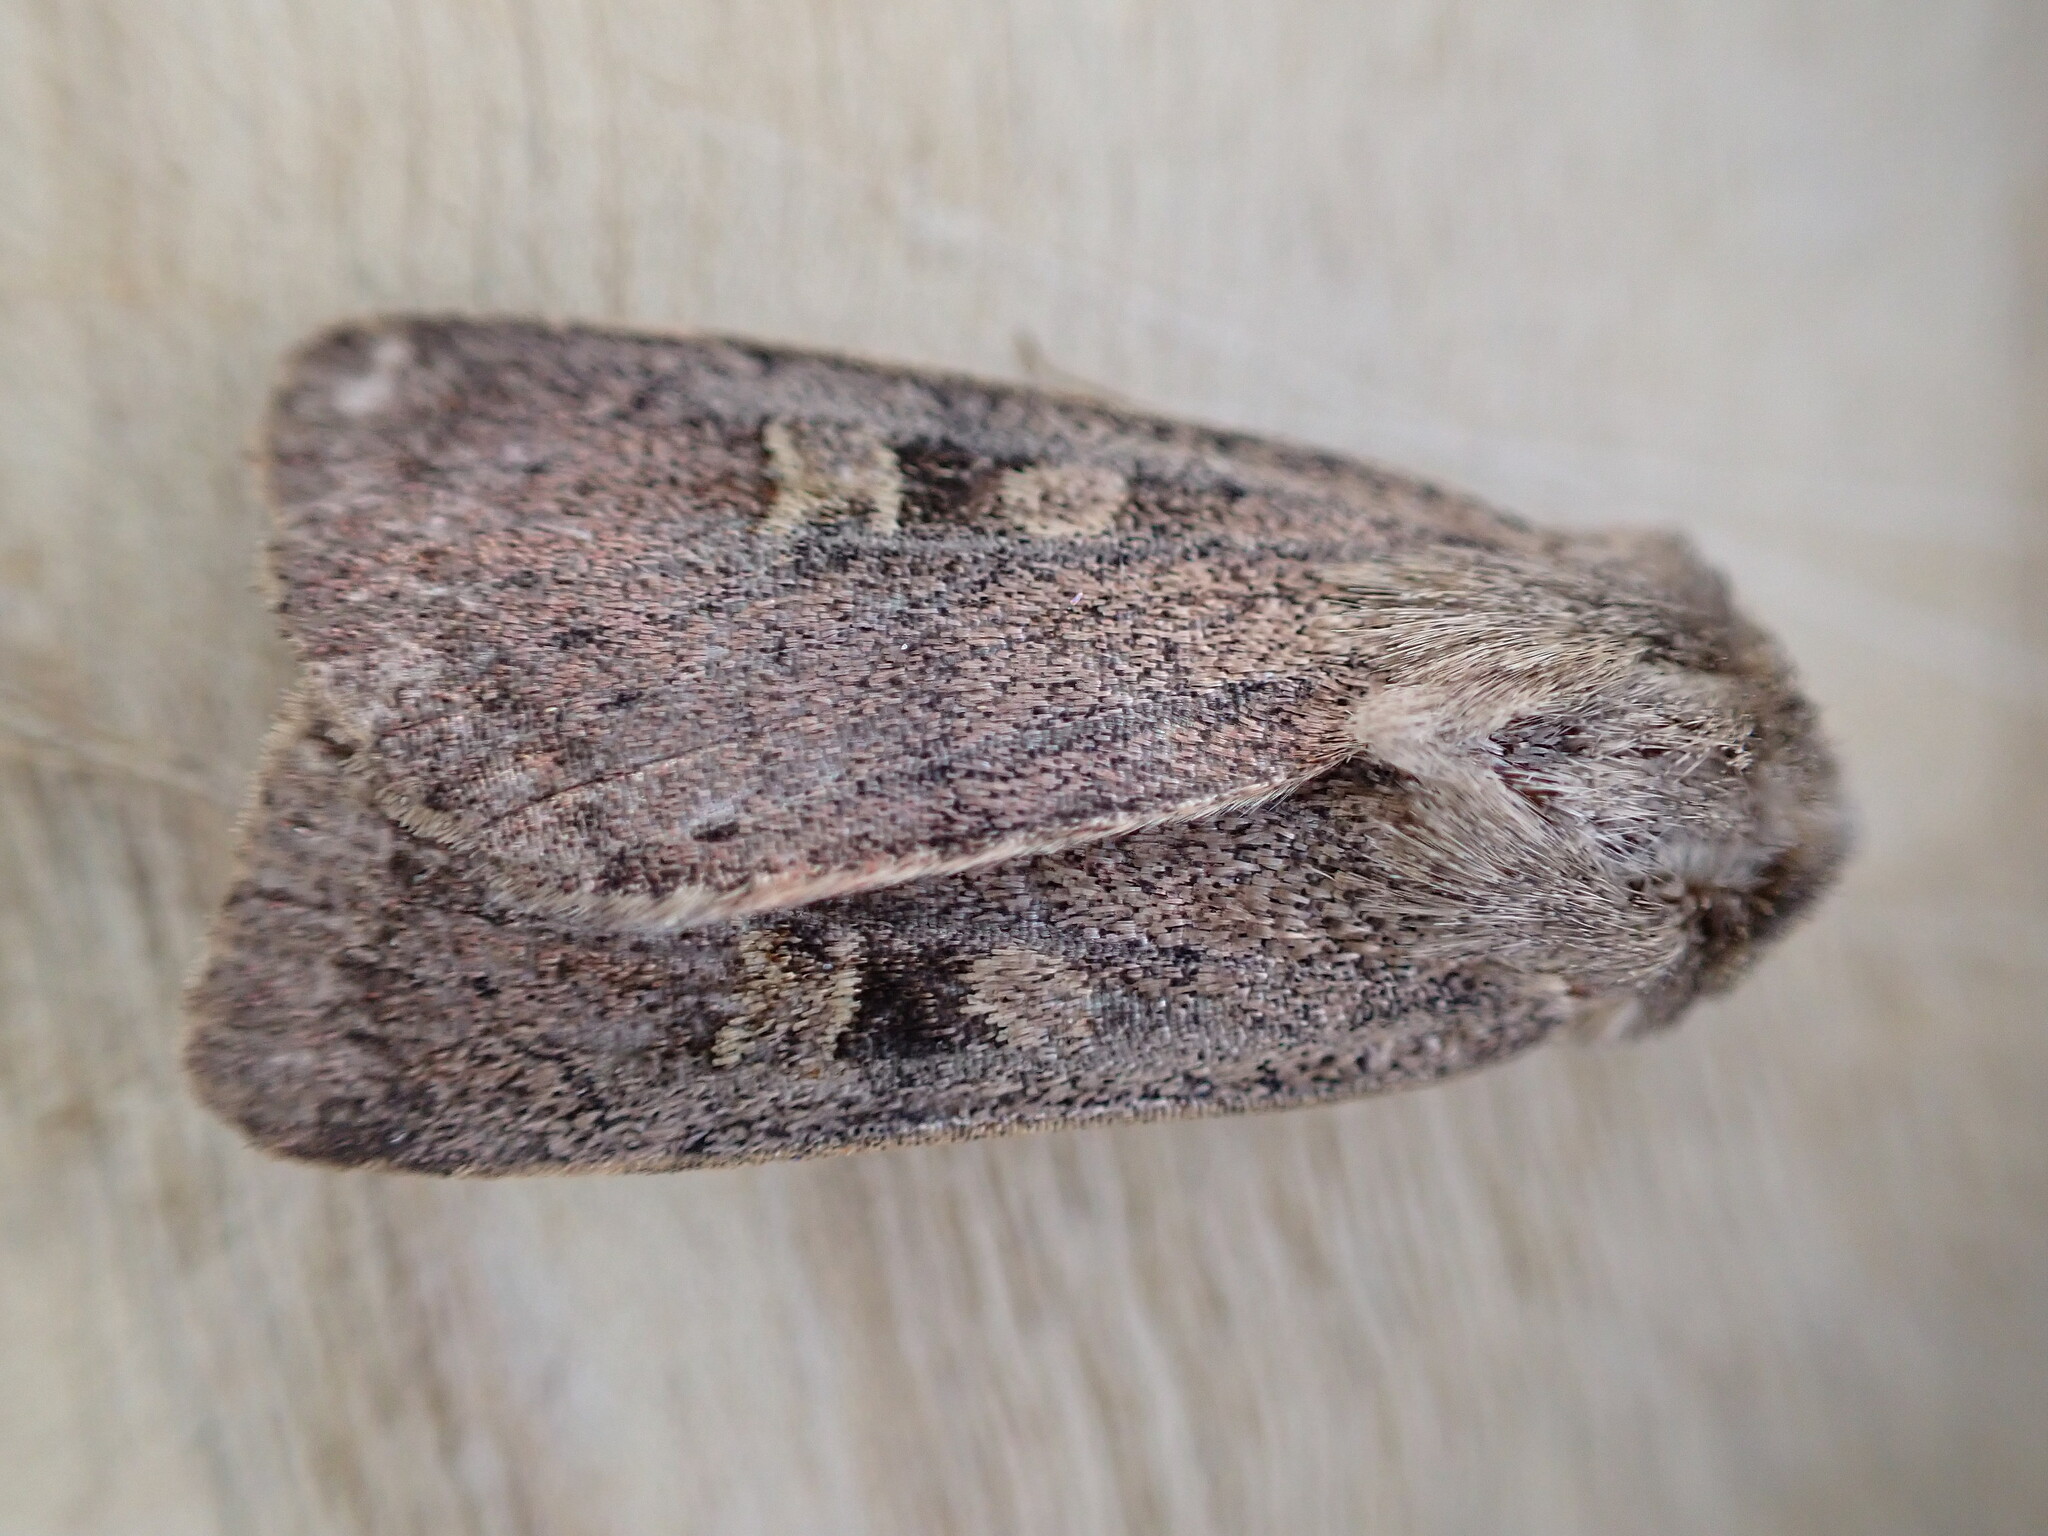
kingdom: Animalia
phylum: Arthropoda
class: Insecta
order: Lepidoptera
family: Noctuidae
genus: Xestia
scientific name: Xestia xanthographa
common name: Square-spot rustic
